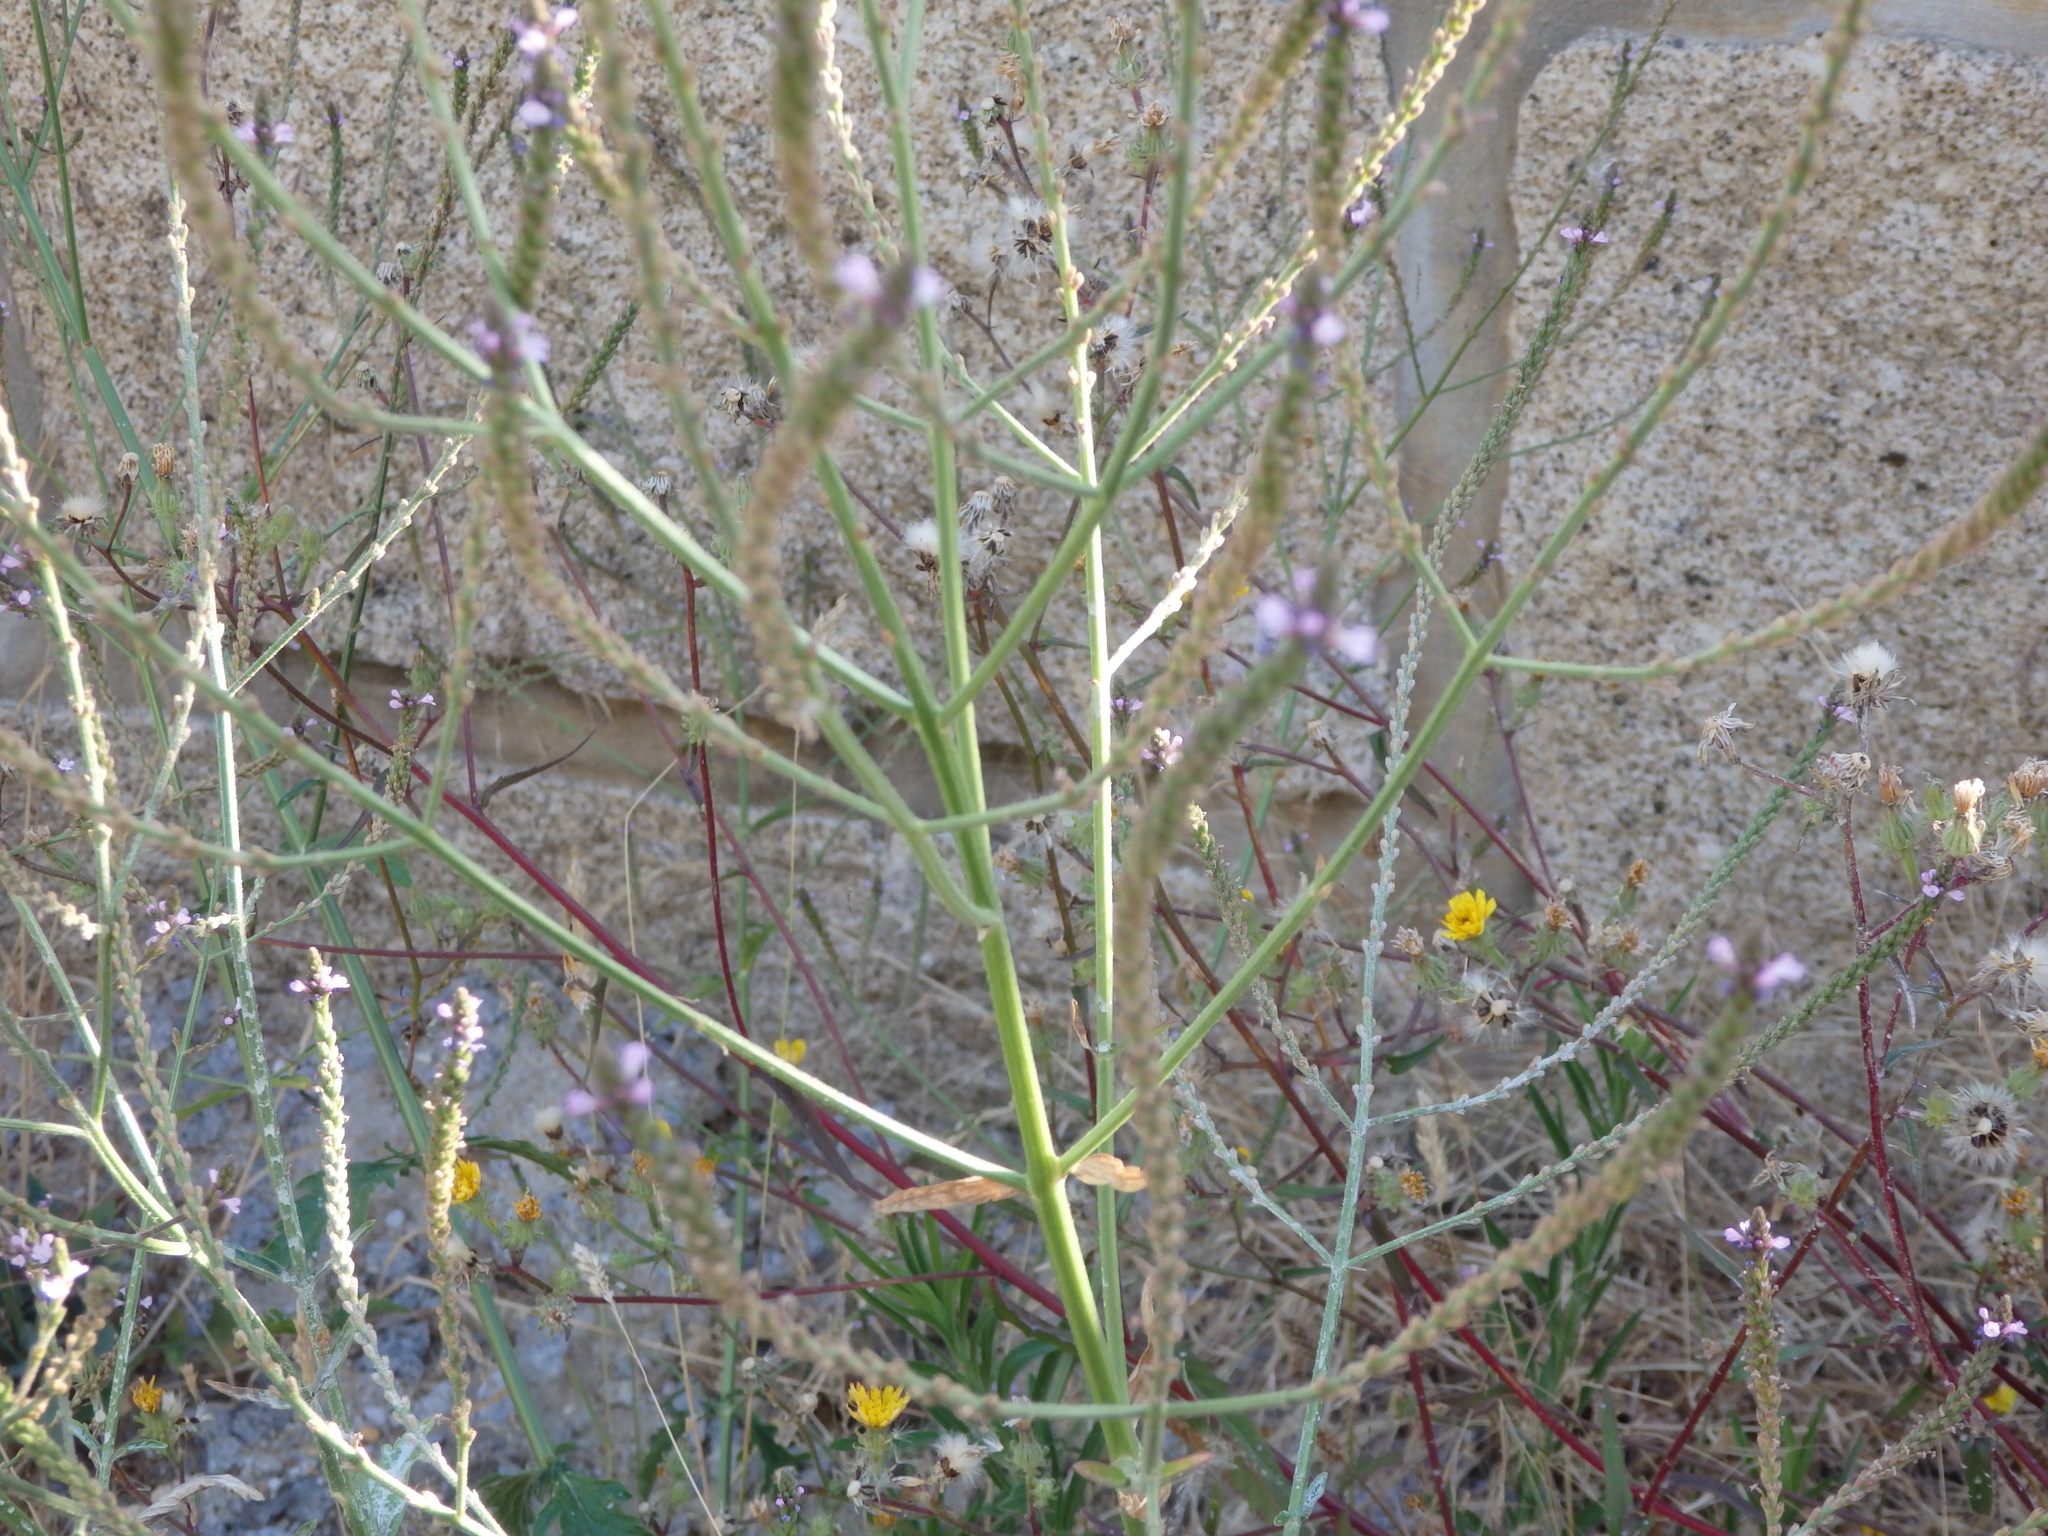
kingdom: Plantae
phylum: Tracheophyta
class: Magnoliopsida
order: Lamiales
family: Verbenaceae
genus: Verbena
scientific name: Verbena officinalis
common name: Vervain
